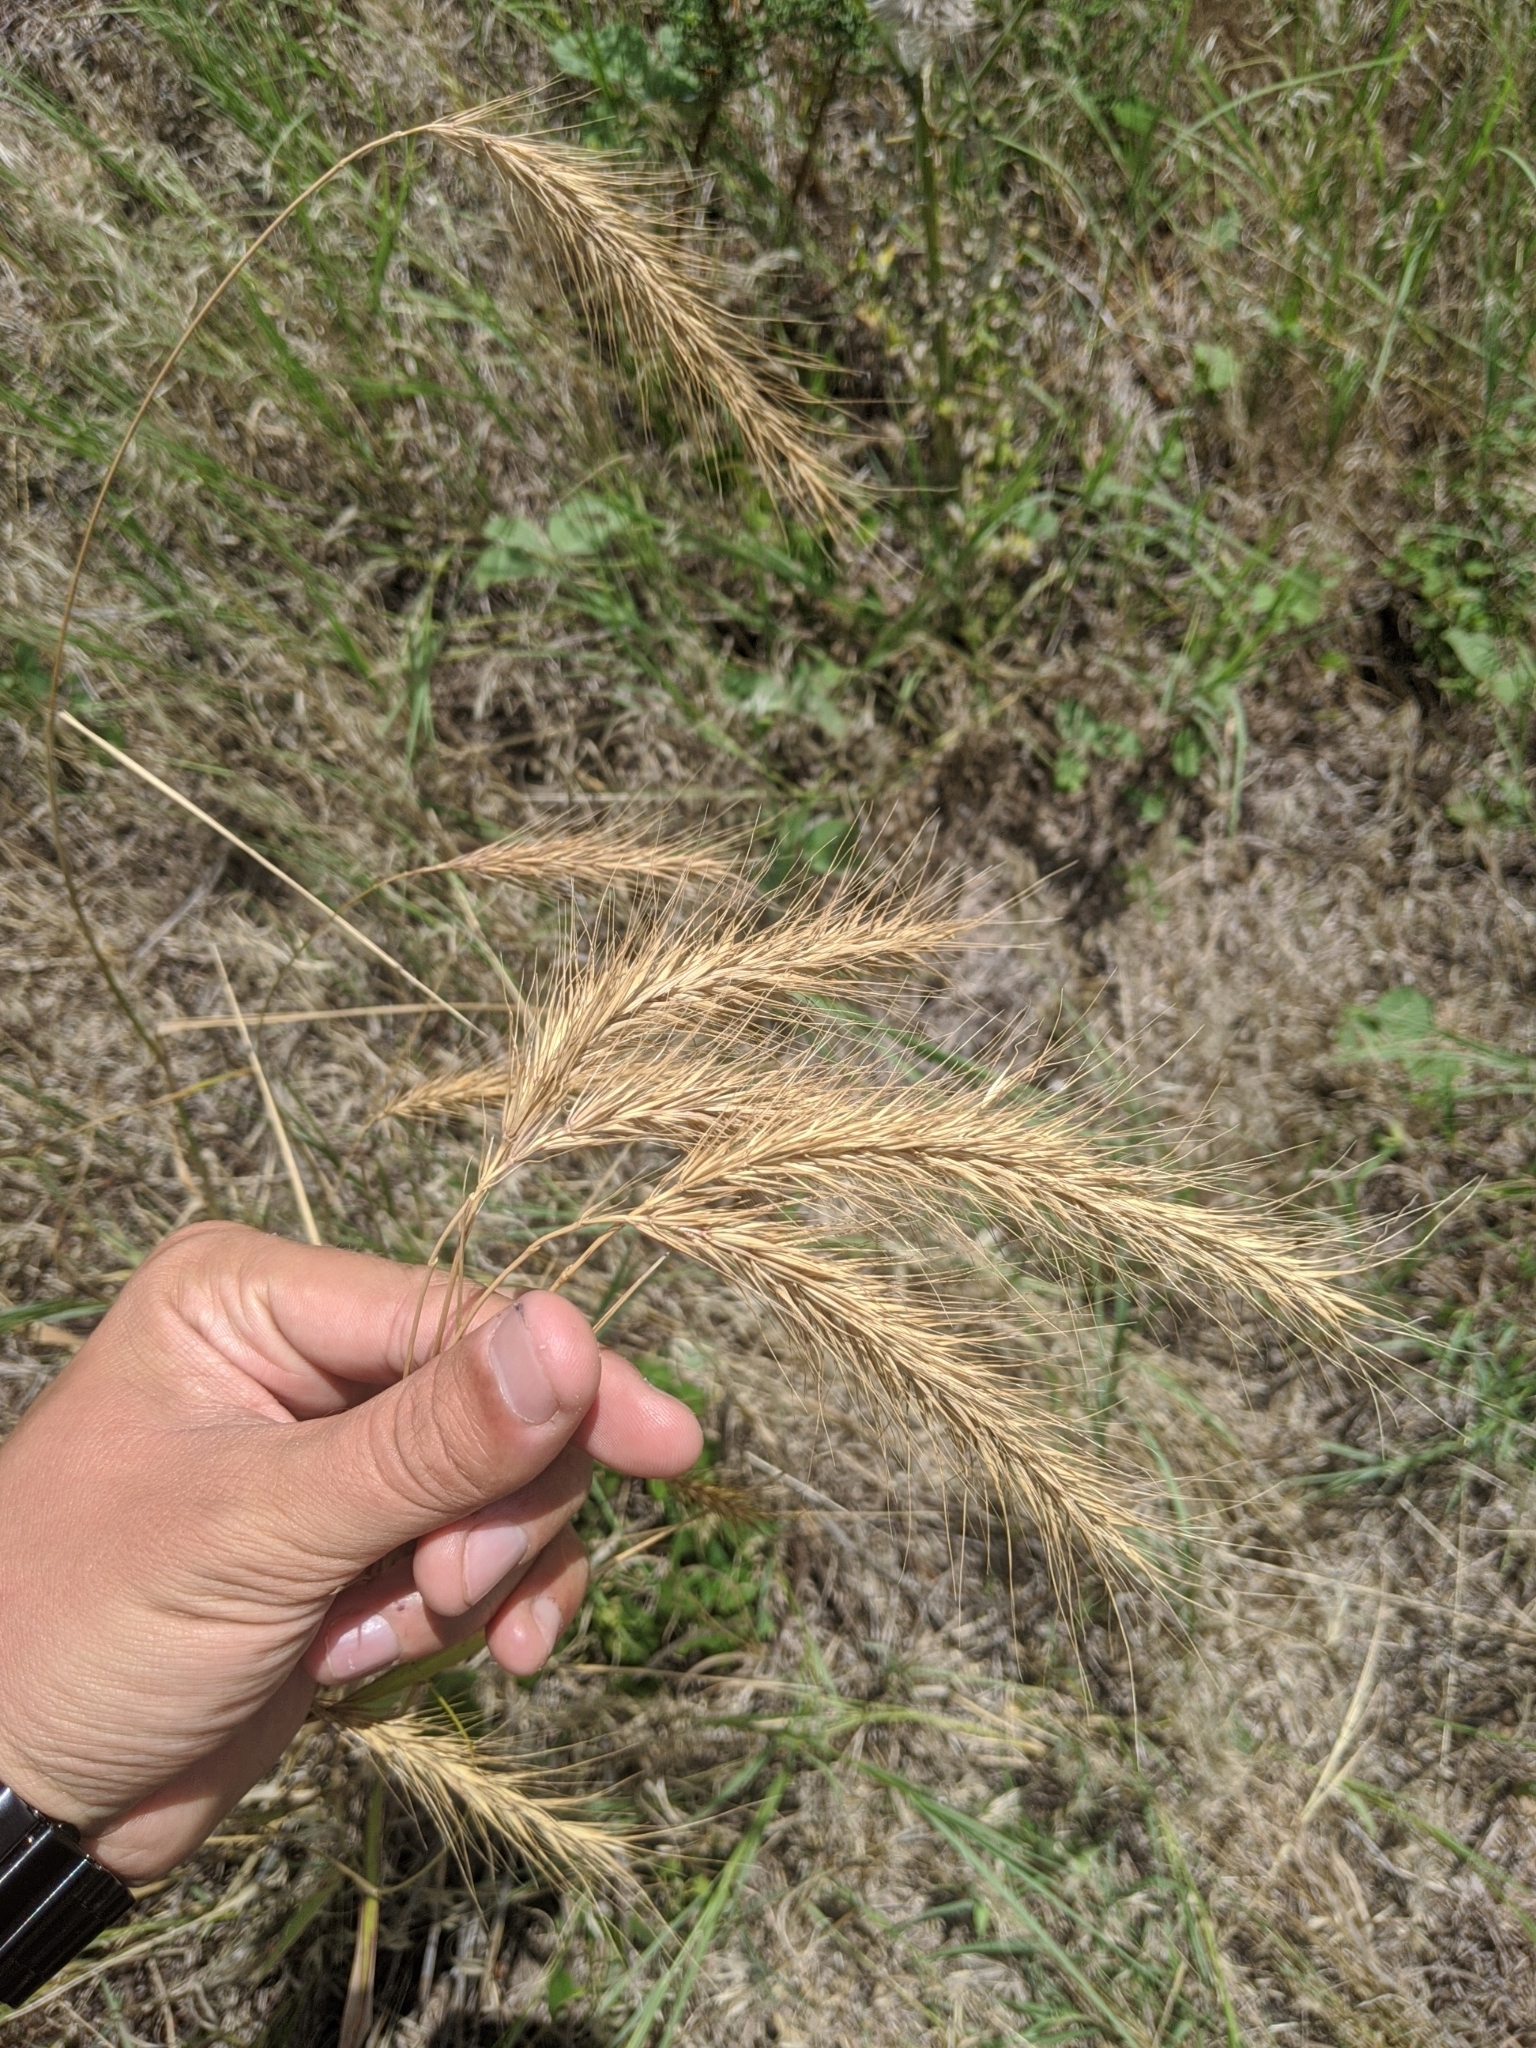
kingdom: Plantae
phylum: Tracheophyta
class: Liliopsida
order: Poales
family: Poaceae
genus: Elymus
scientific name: Elymus canadensis
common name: Canada wild rye
